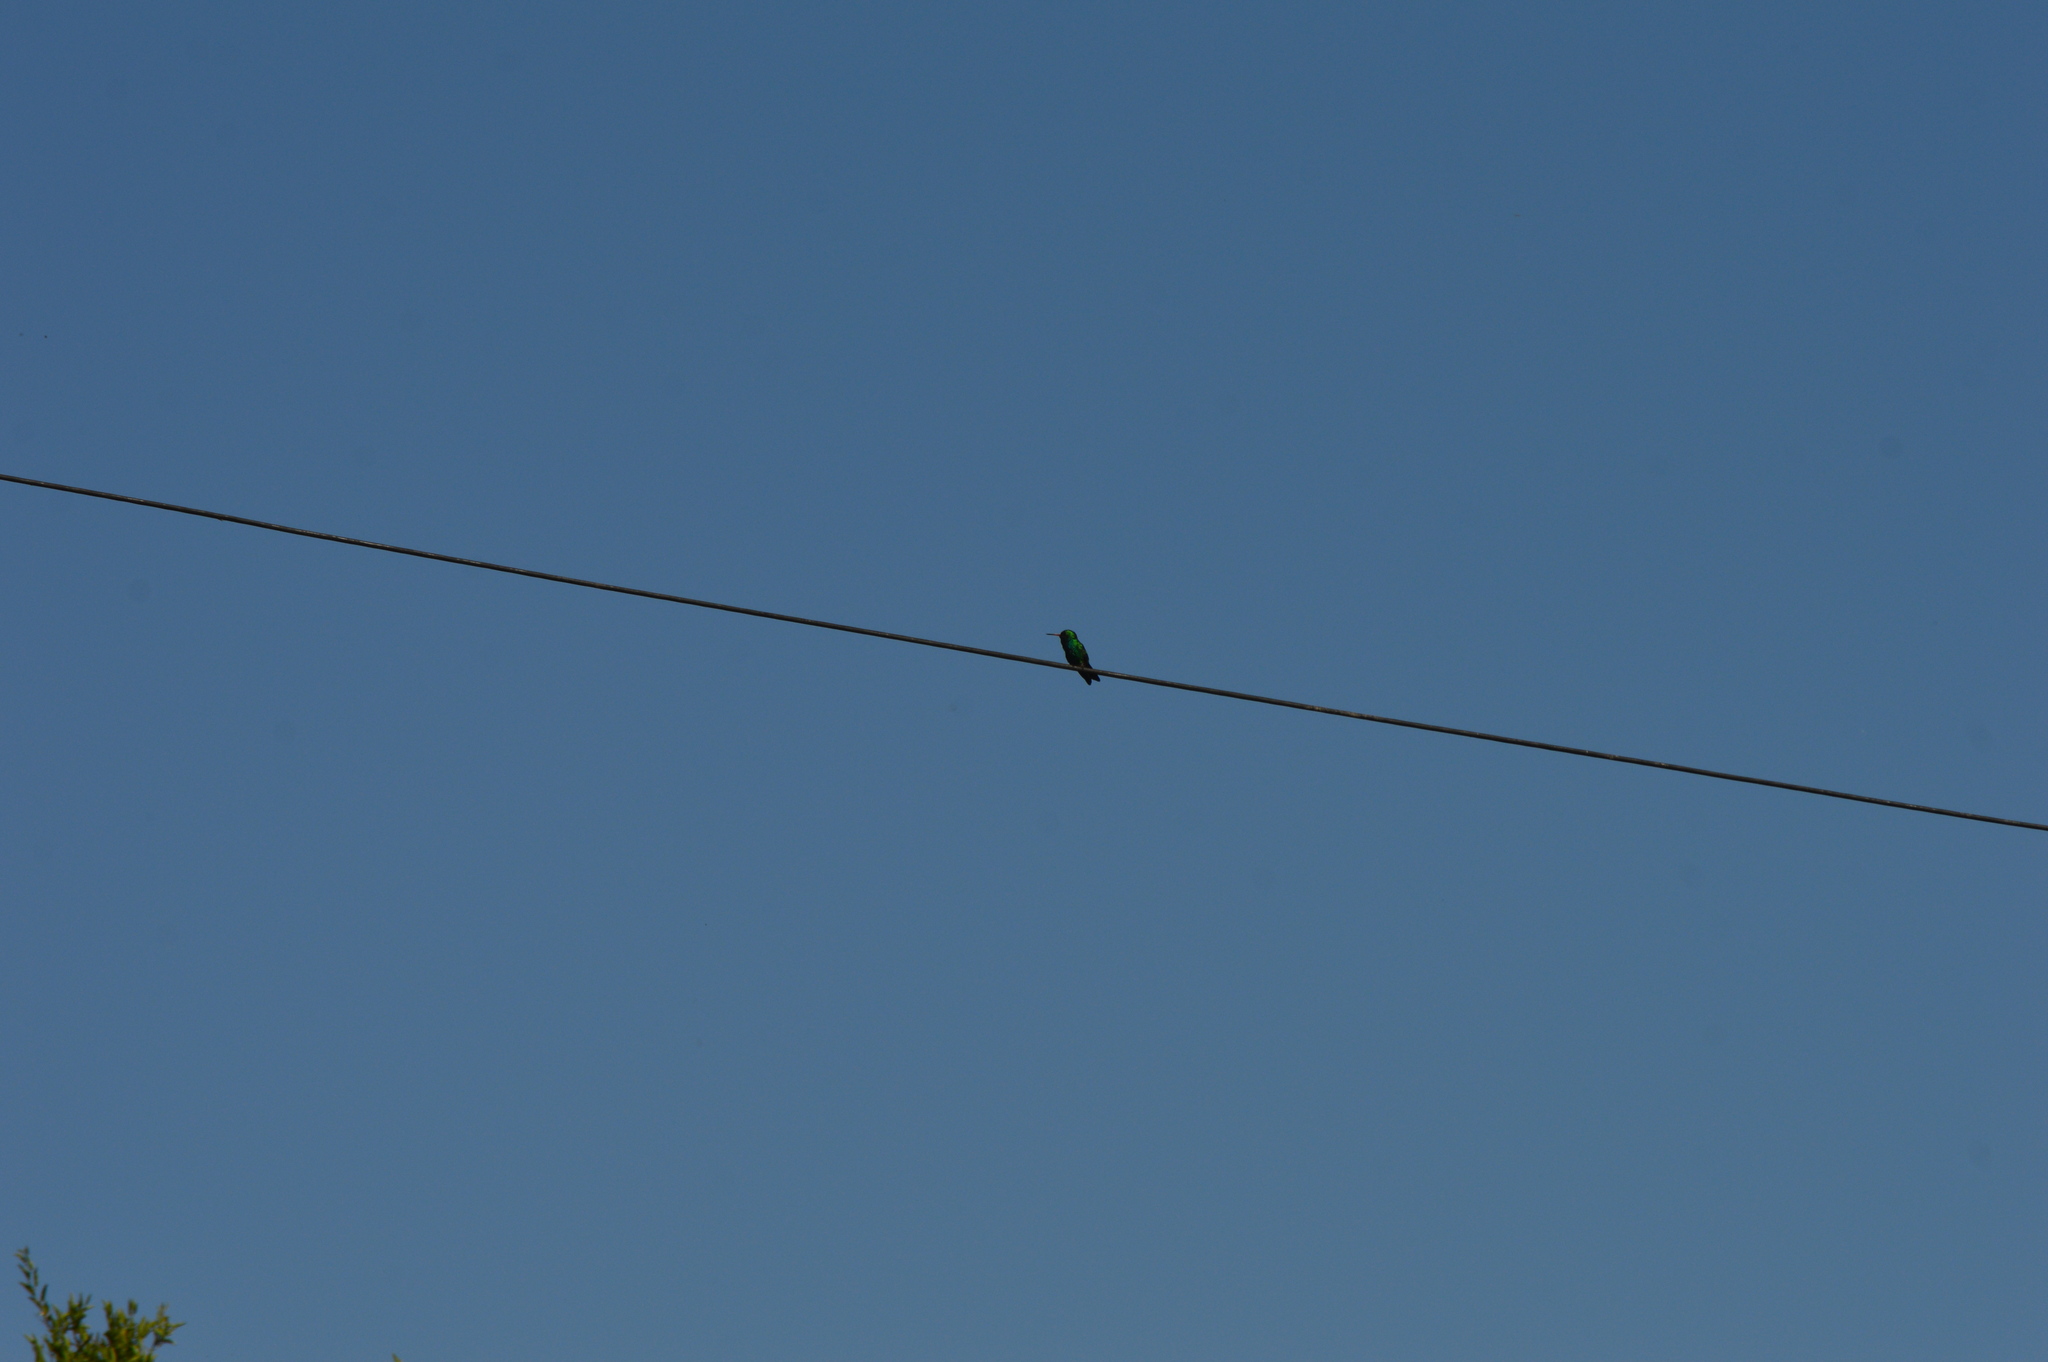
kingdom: Animalia
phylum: Chordata
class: Aves
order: Apodiformes
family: Trochilidae
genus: Chlorostilbon
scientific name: Chlorostilbon lucidus
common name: Glittering-bellied emerald
